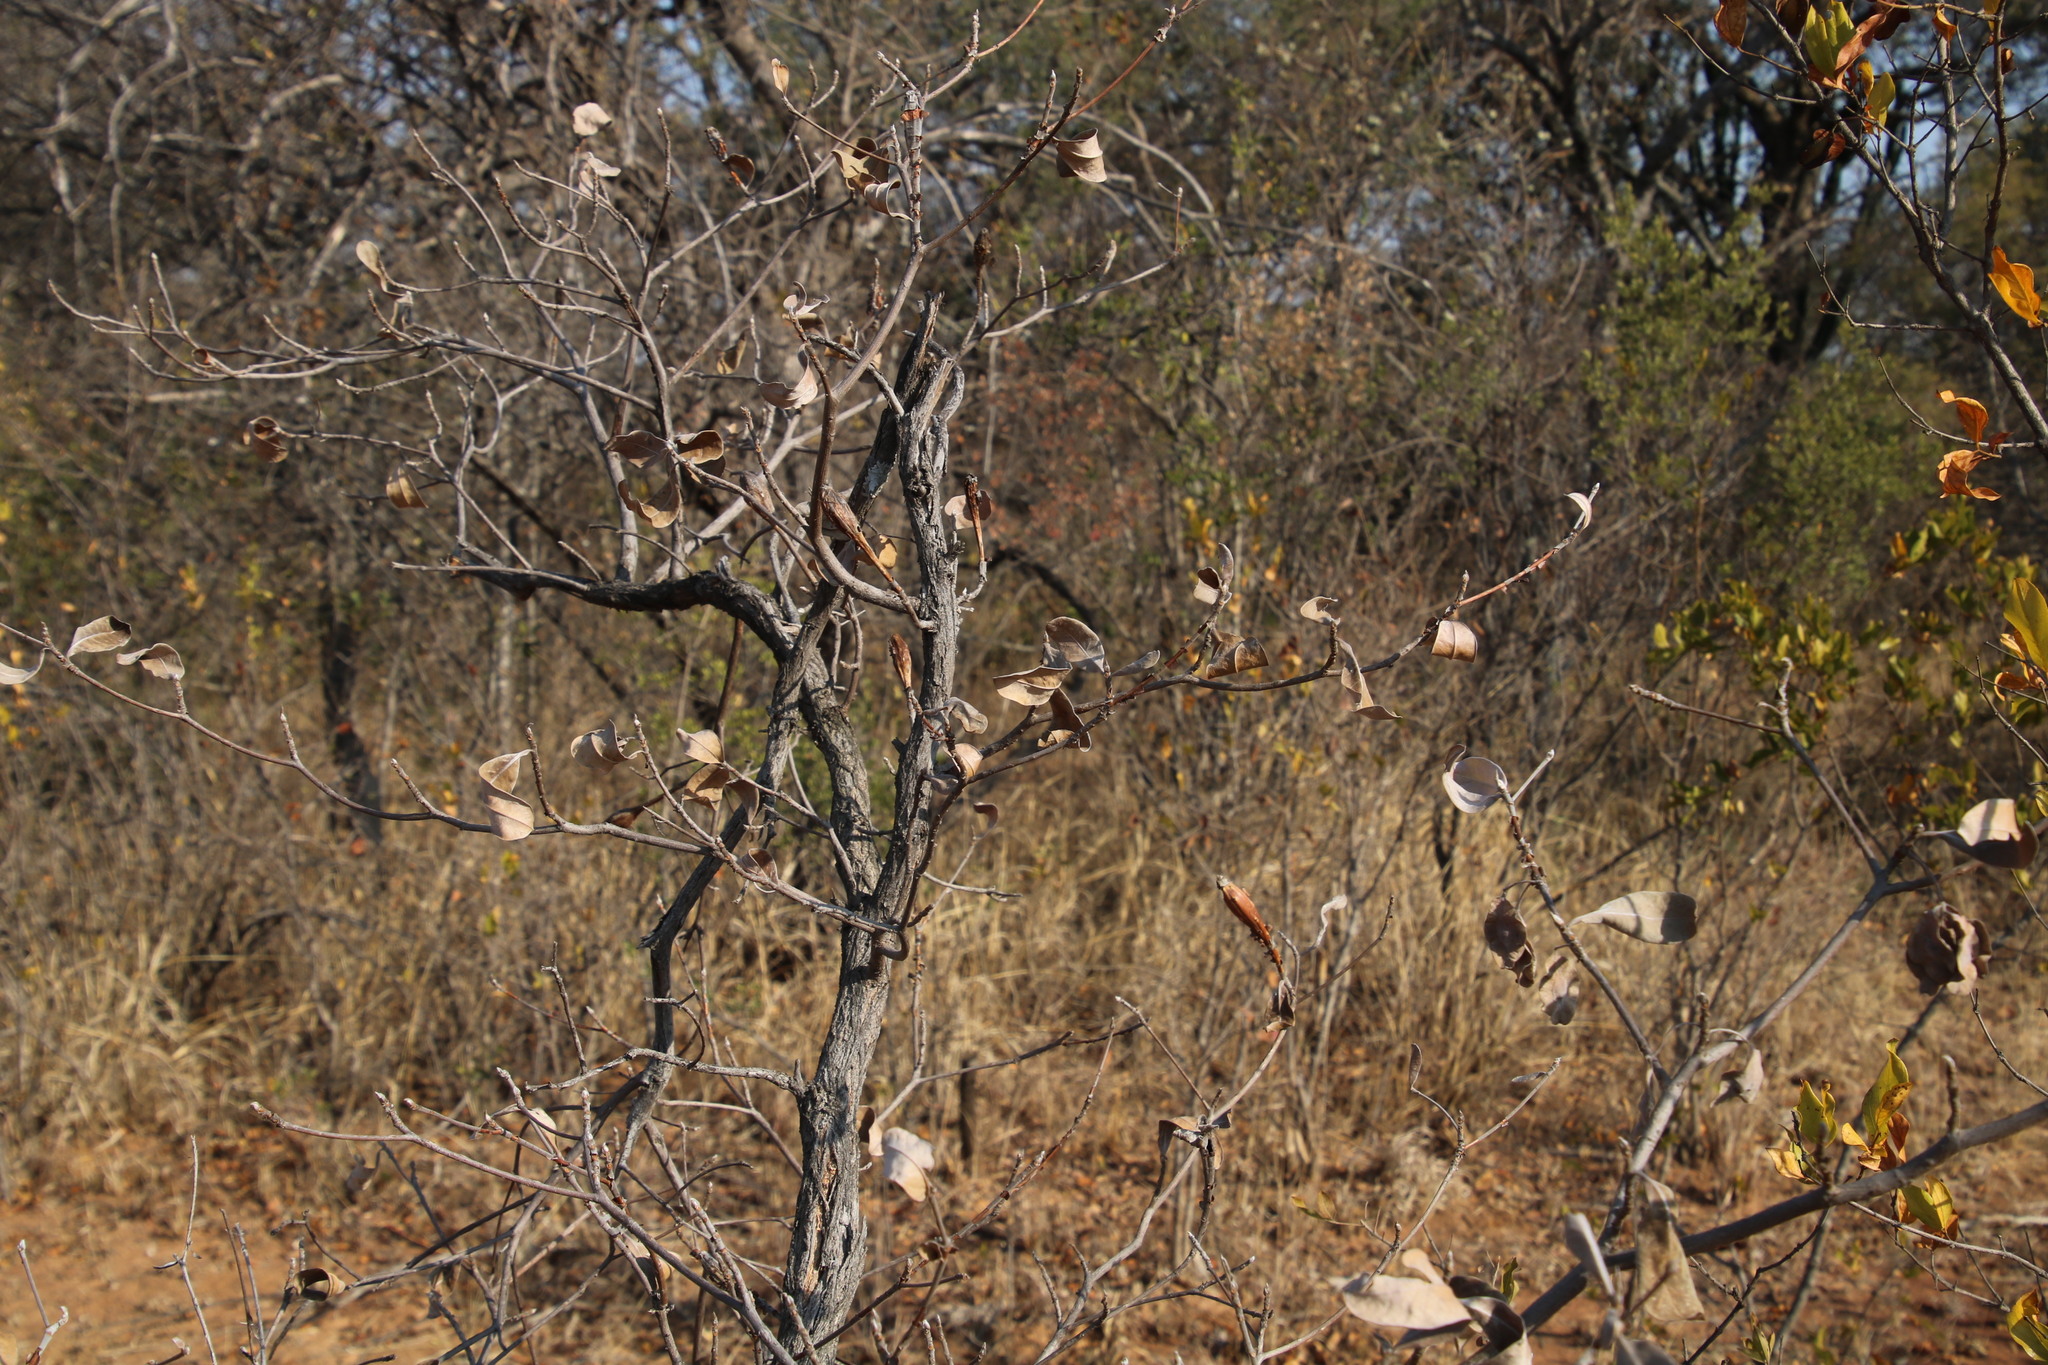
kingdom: Plantae
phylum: Tracheophyta
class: Magnoliopsida
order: Myrtales
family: Combretaceae
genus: Terminalia
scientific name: Terminalia sericea
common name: Clusterleaf
